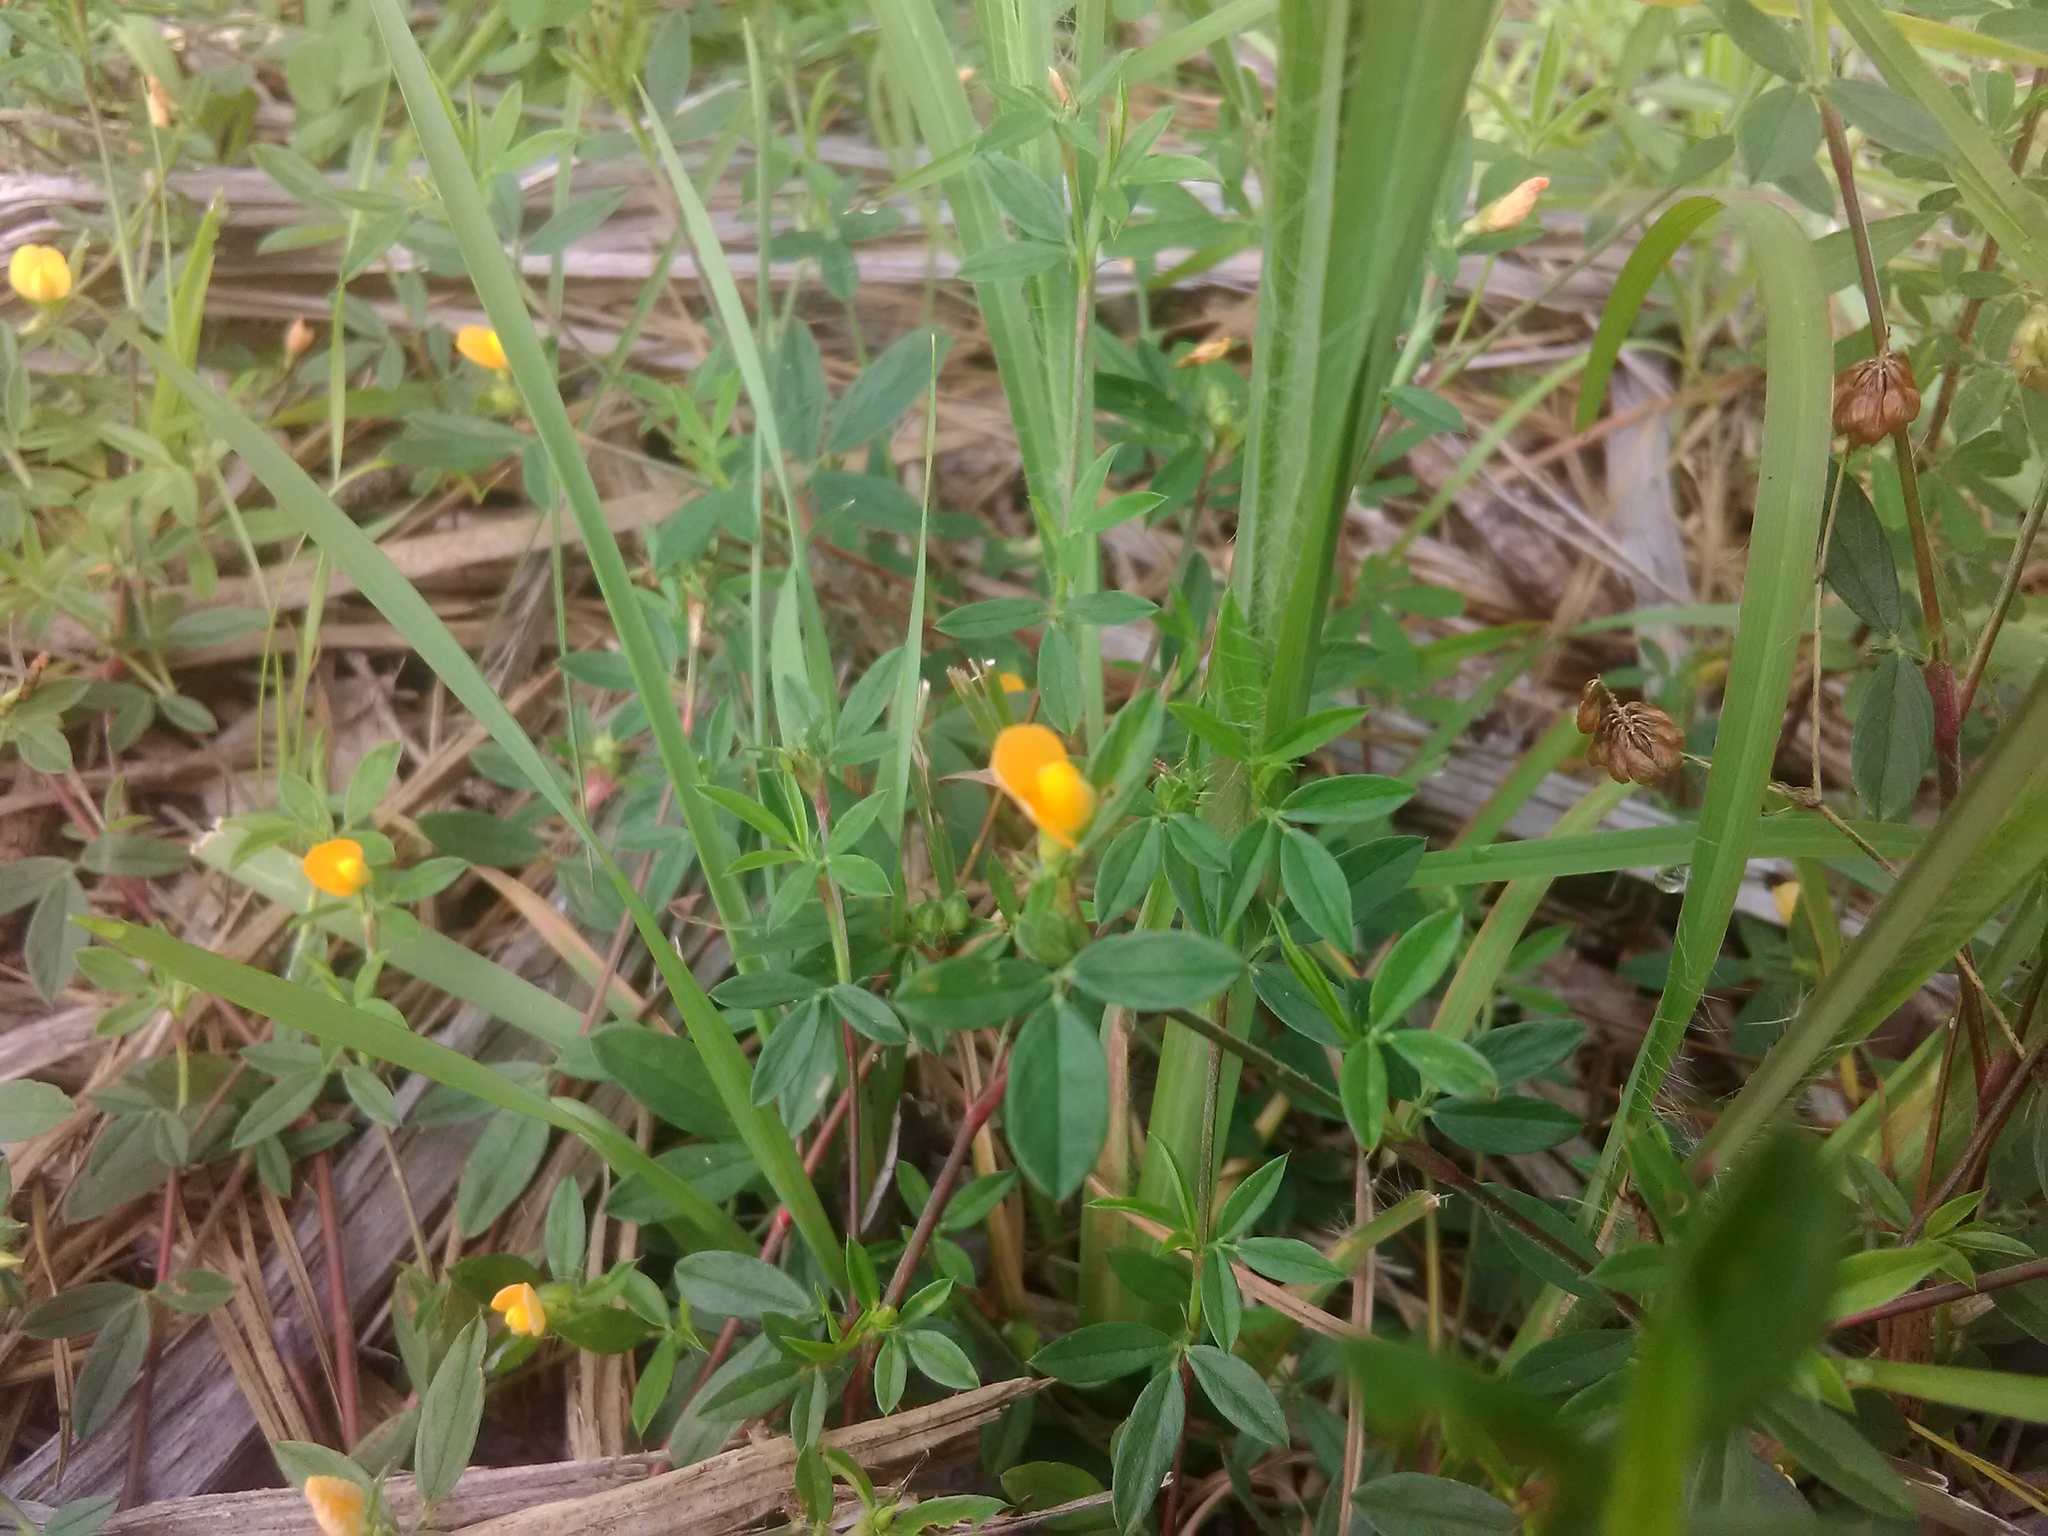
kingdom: Plantae
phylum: Tracheophyta
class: Magnoliopsida
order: Fabales
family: Fabaceae
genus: Trifolium
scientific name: Trifolium repens
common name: White clover
